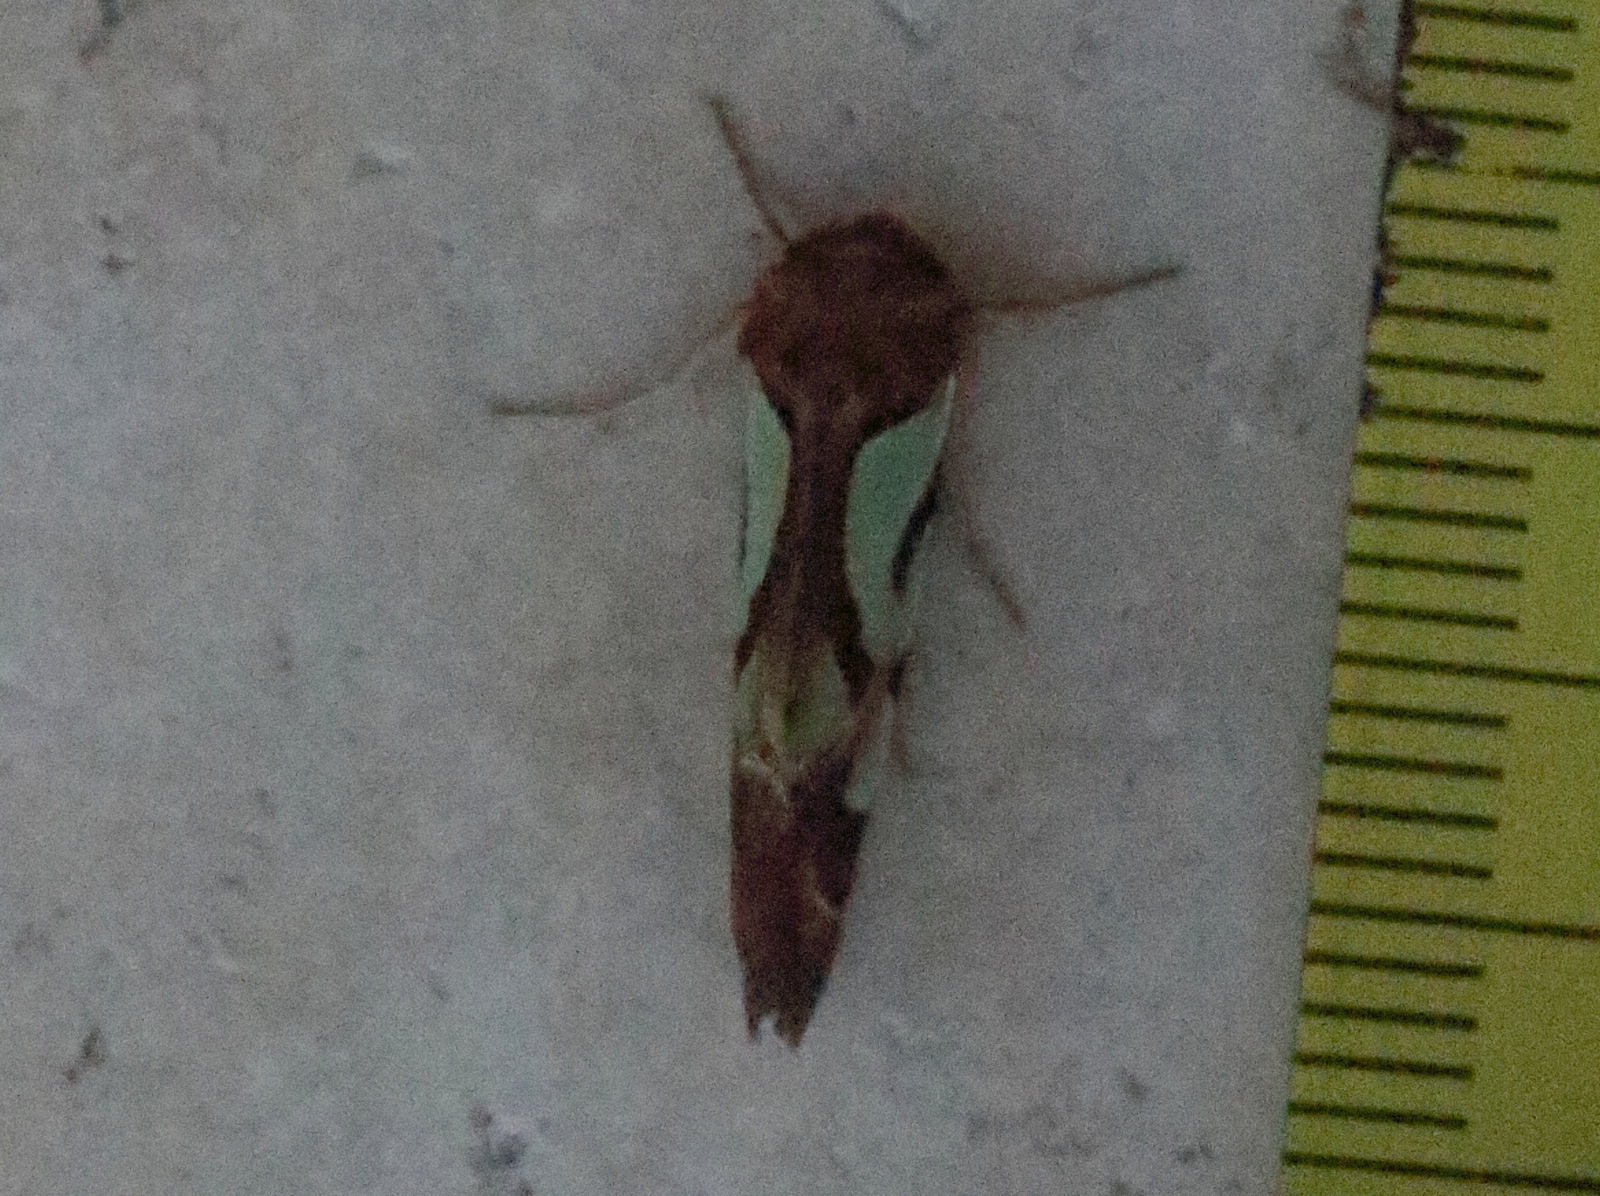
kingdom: Animalia
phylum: Arthropoda
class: Insecta
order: Lepidoptera
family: Noctuidae
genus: Cosmodes
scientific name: Cosmodes elegans
